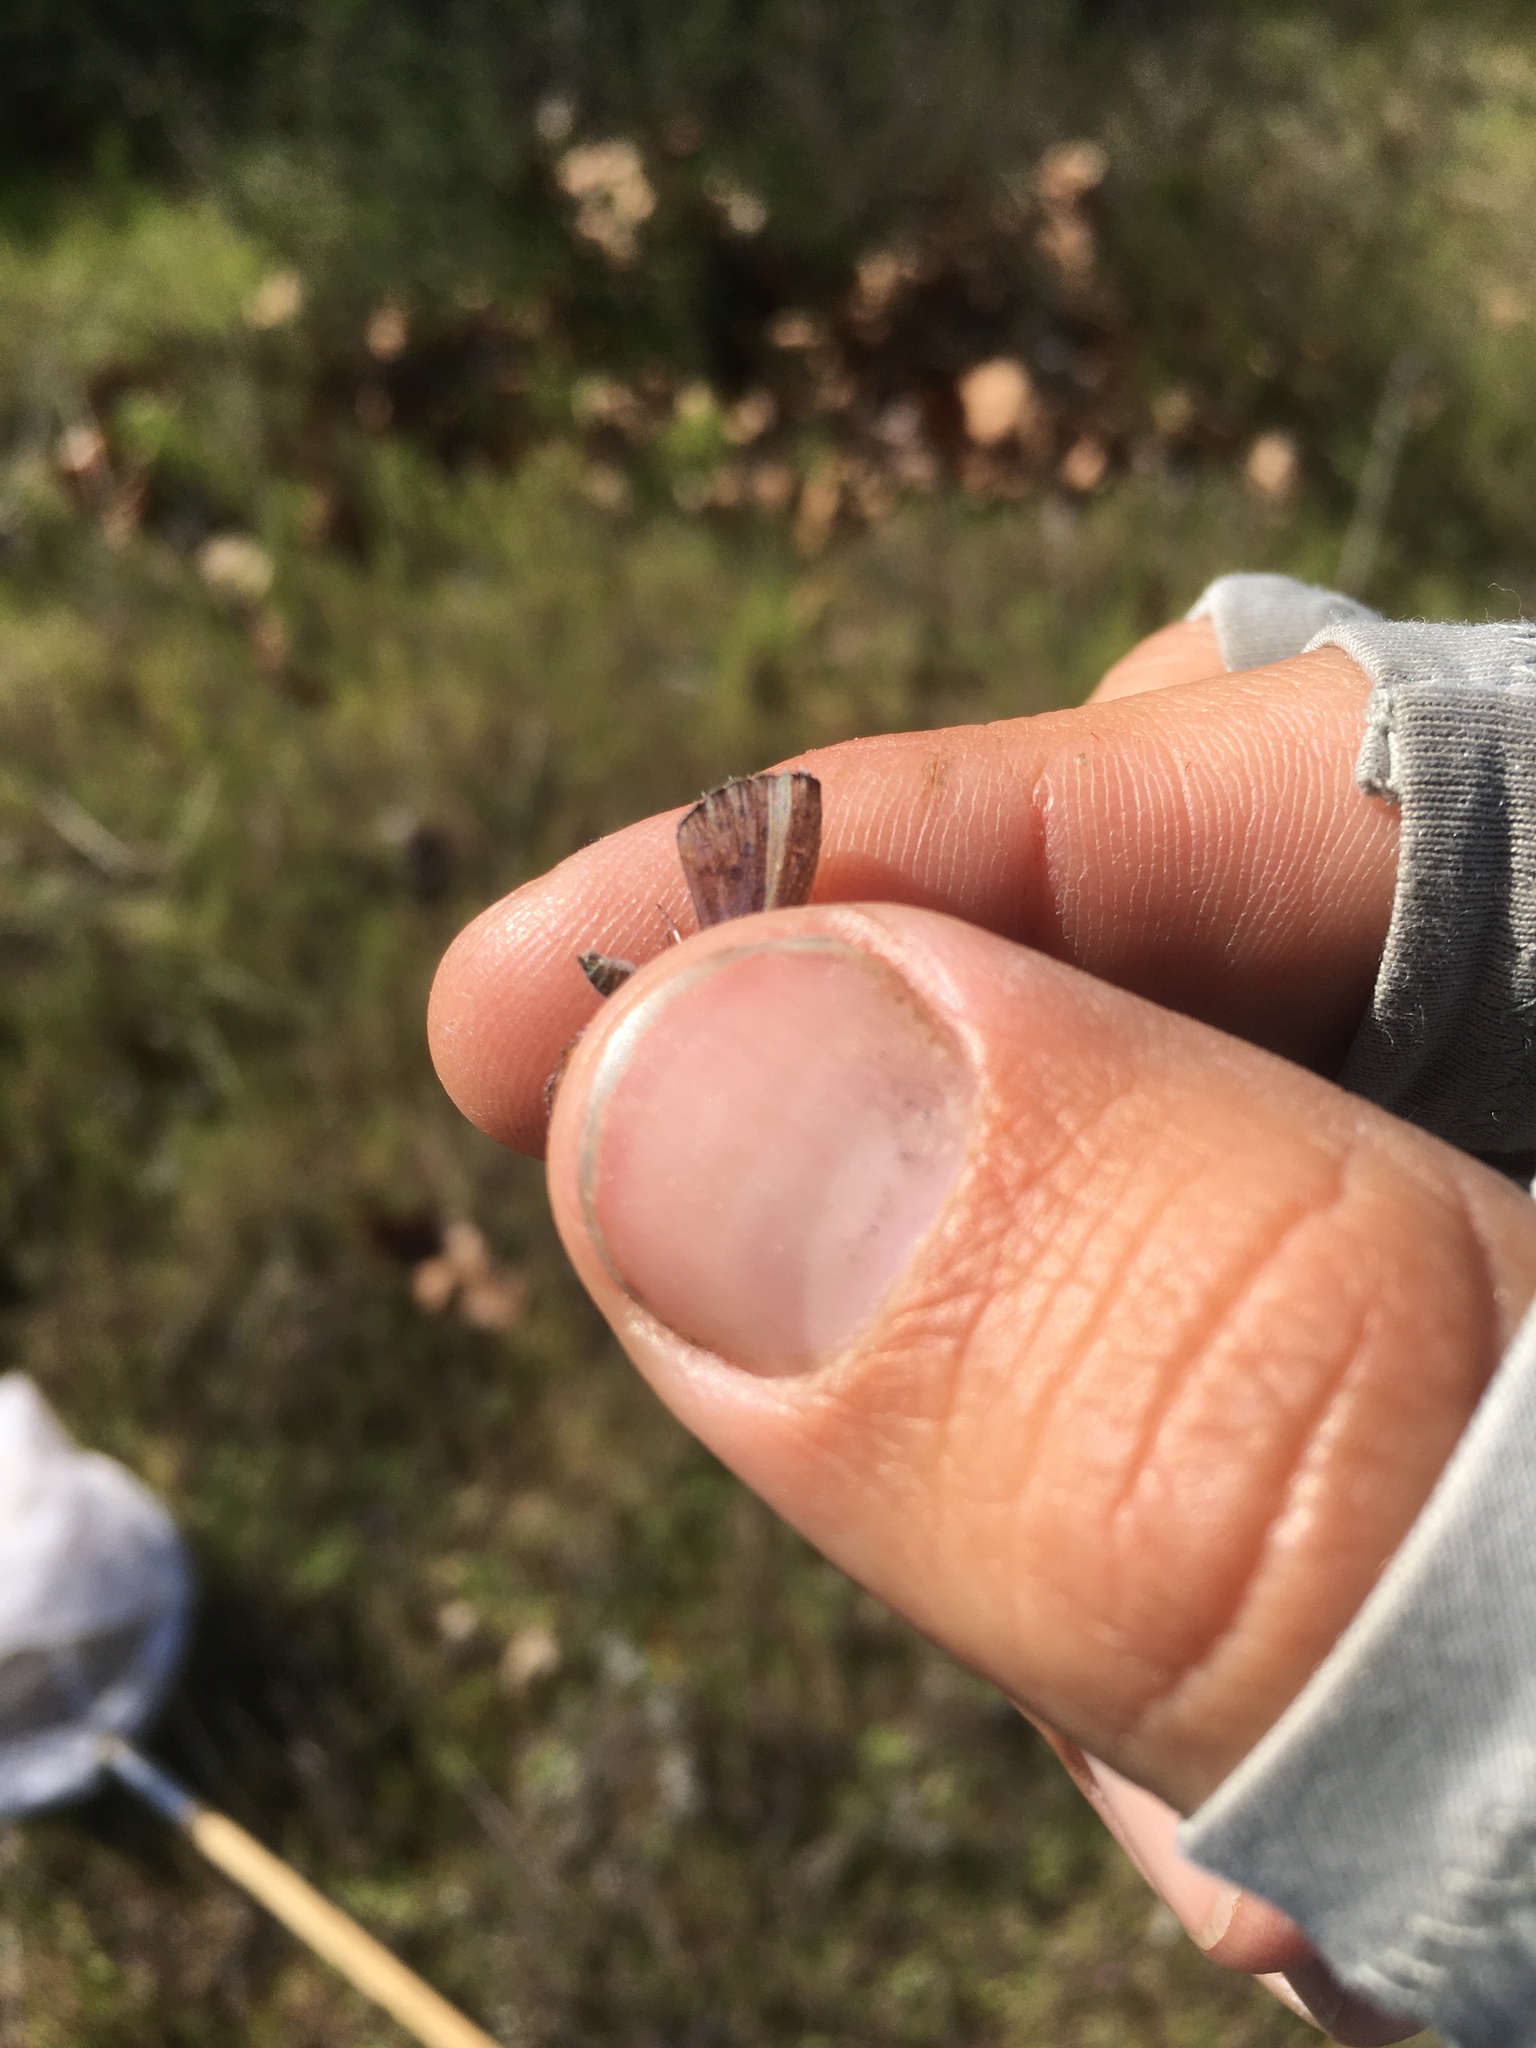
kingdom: Animalia
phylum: Arthropoda
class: Insecta
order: Lepidoptera
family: Lycaenidae
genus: Icaricia
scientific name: Icaricia acmon
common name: Acmon blue
